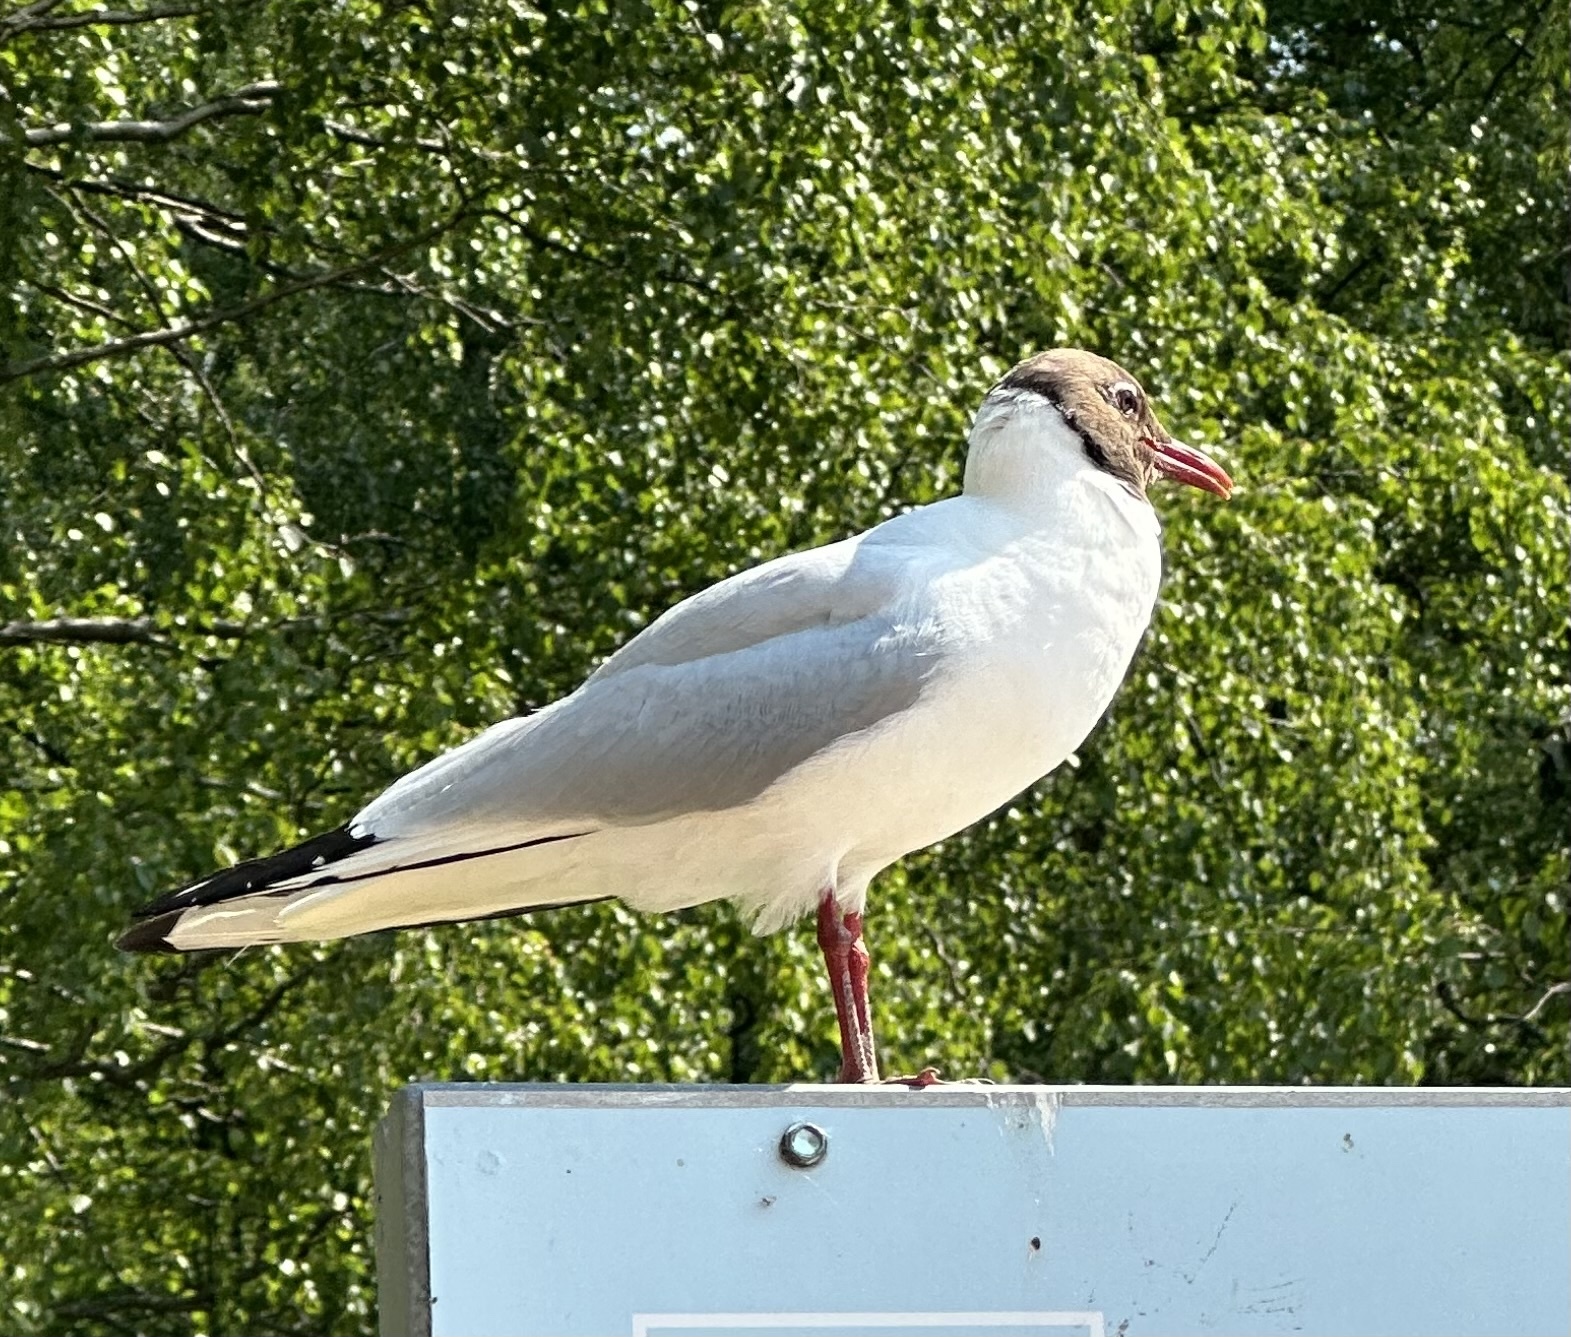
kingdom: Animalia
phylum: Chordata
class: Aves
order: Charadriiformes
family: Laridae
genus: Chroicocephalus
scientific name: Chroicocephalus ridibundus
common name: Black-headed gull
